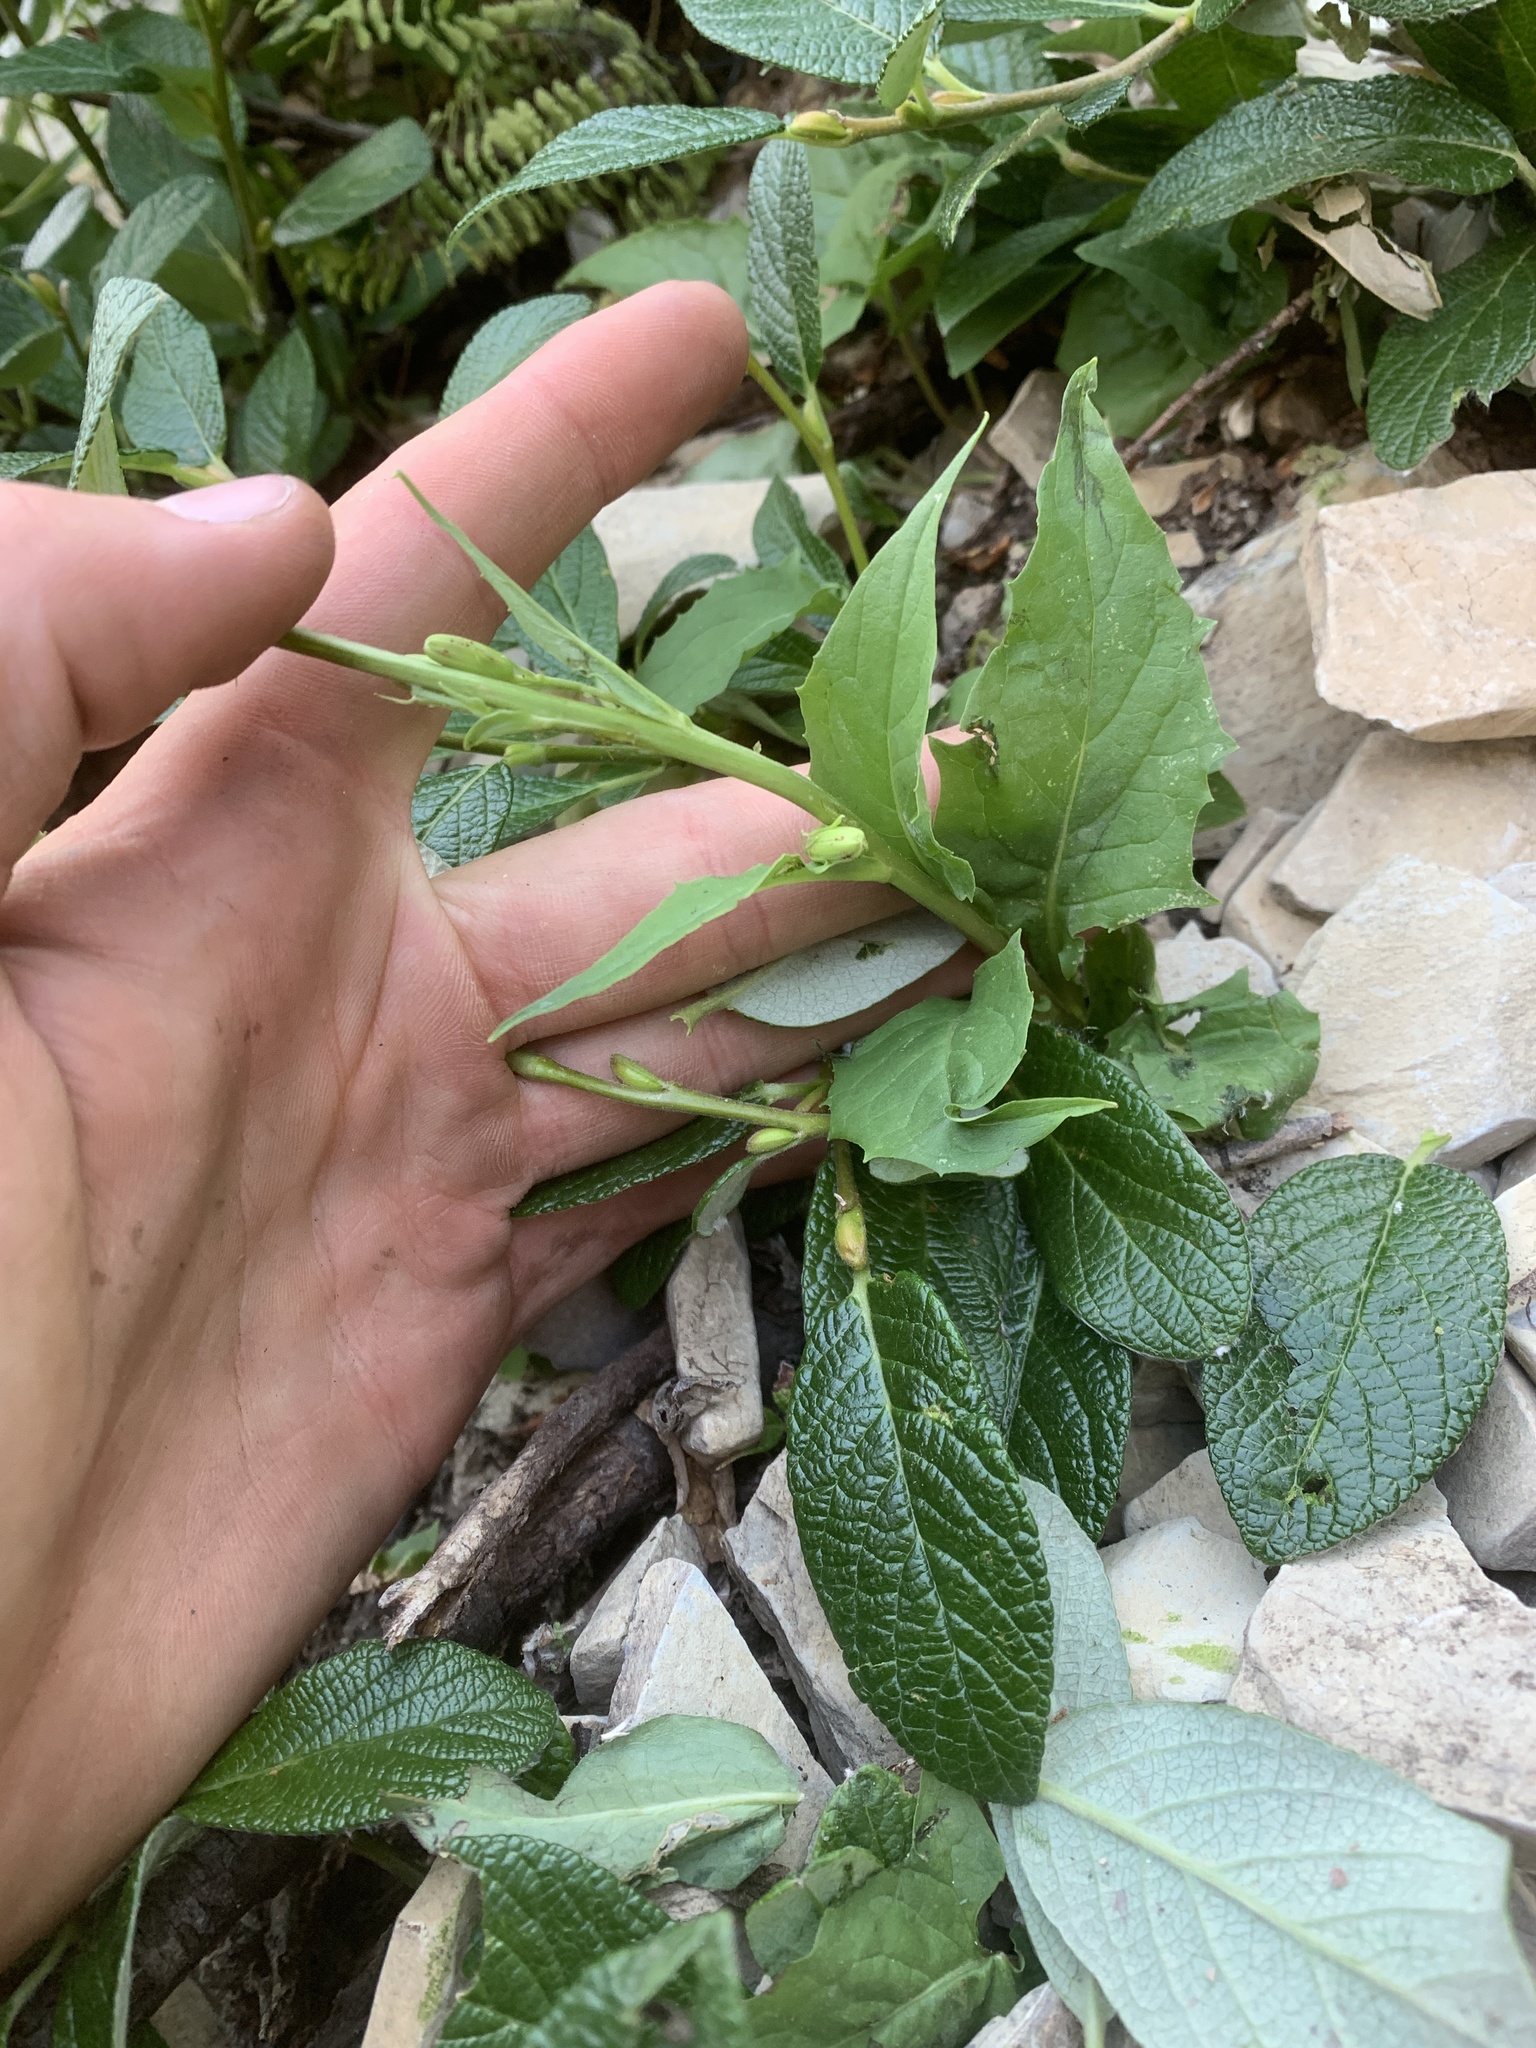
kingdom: Plantae
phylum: Tracheophyta
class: Magnoliopsida
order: Asterales
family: Asteraceae
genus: Nabalus
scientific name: Nabalus sagittatus
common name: Arrowleaf snakeroot
